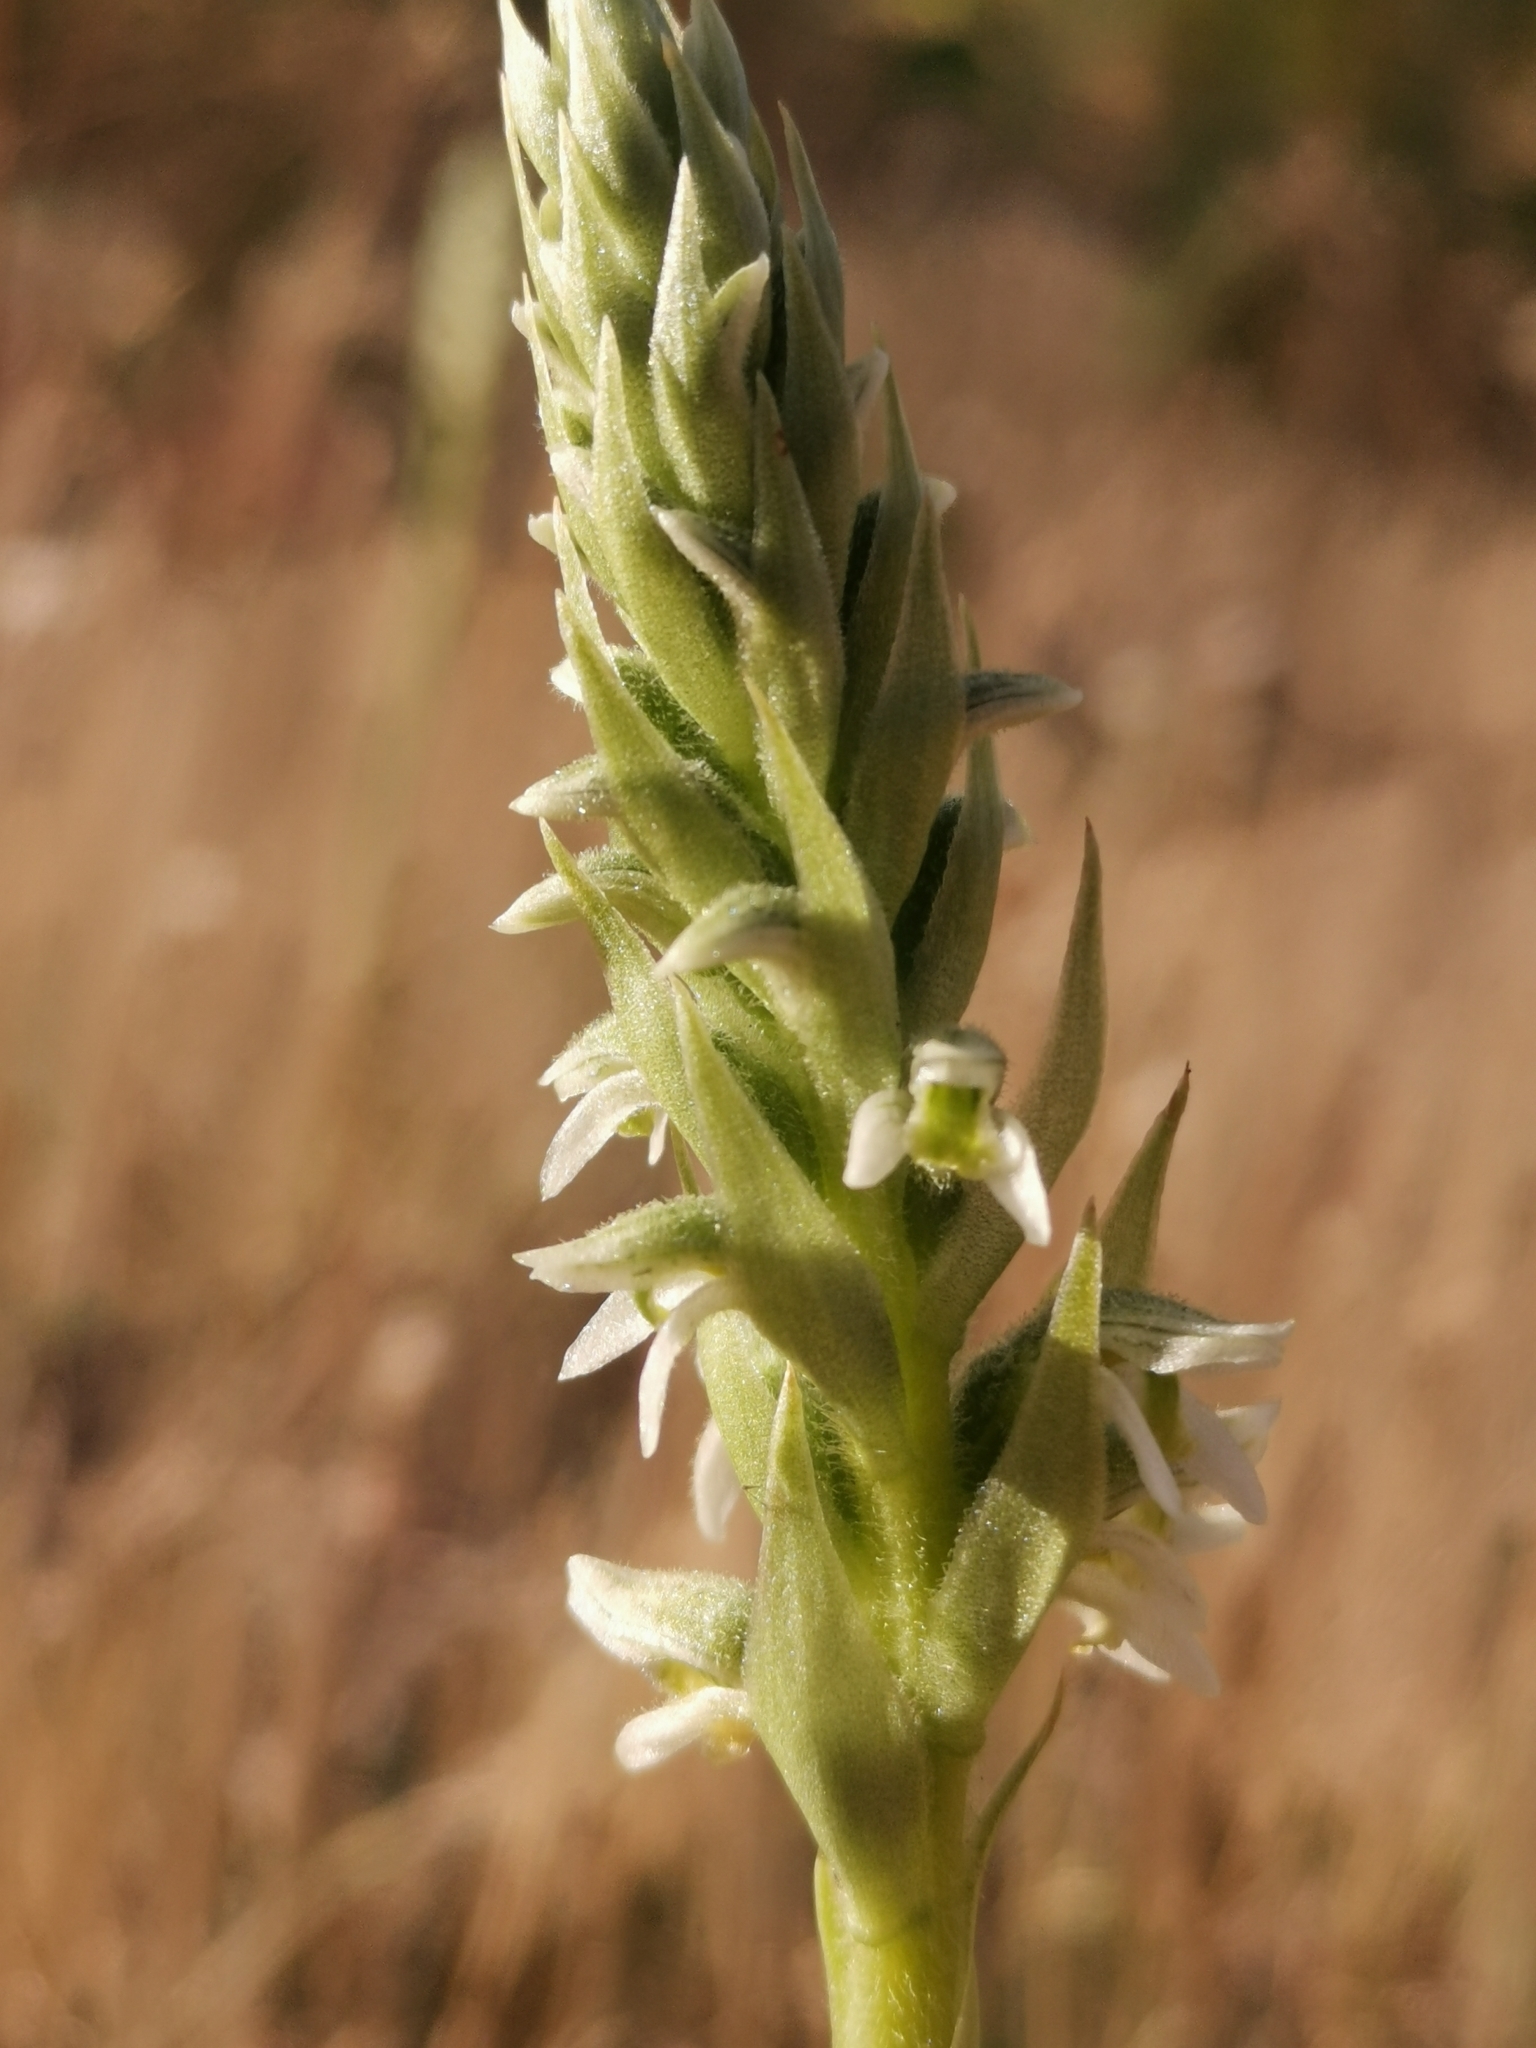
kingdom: Plantae
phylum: Tracheophyta
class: Liliopsida
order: Asparagales
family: Orchidaceae
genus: Brachystele
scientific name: Brachystele unilateralis
